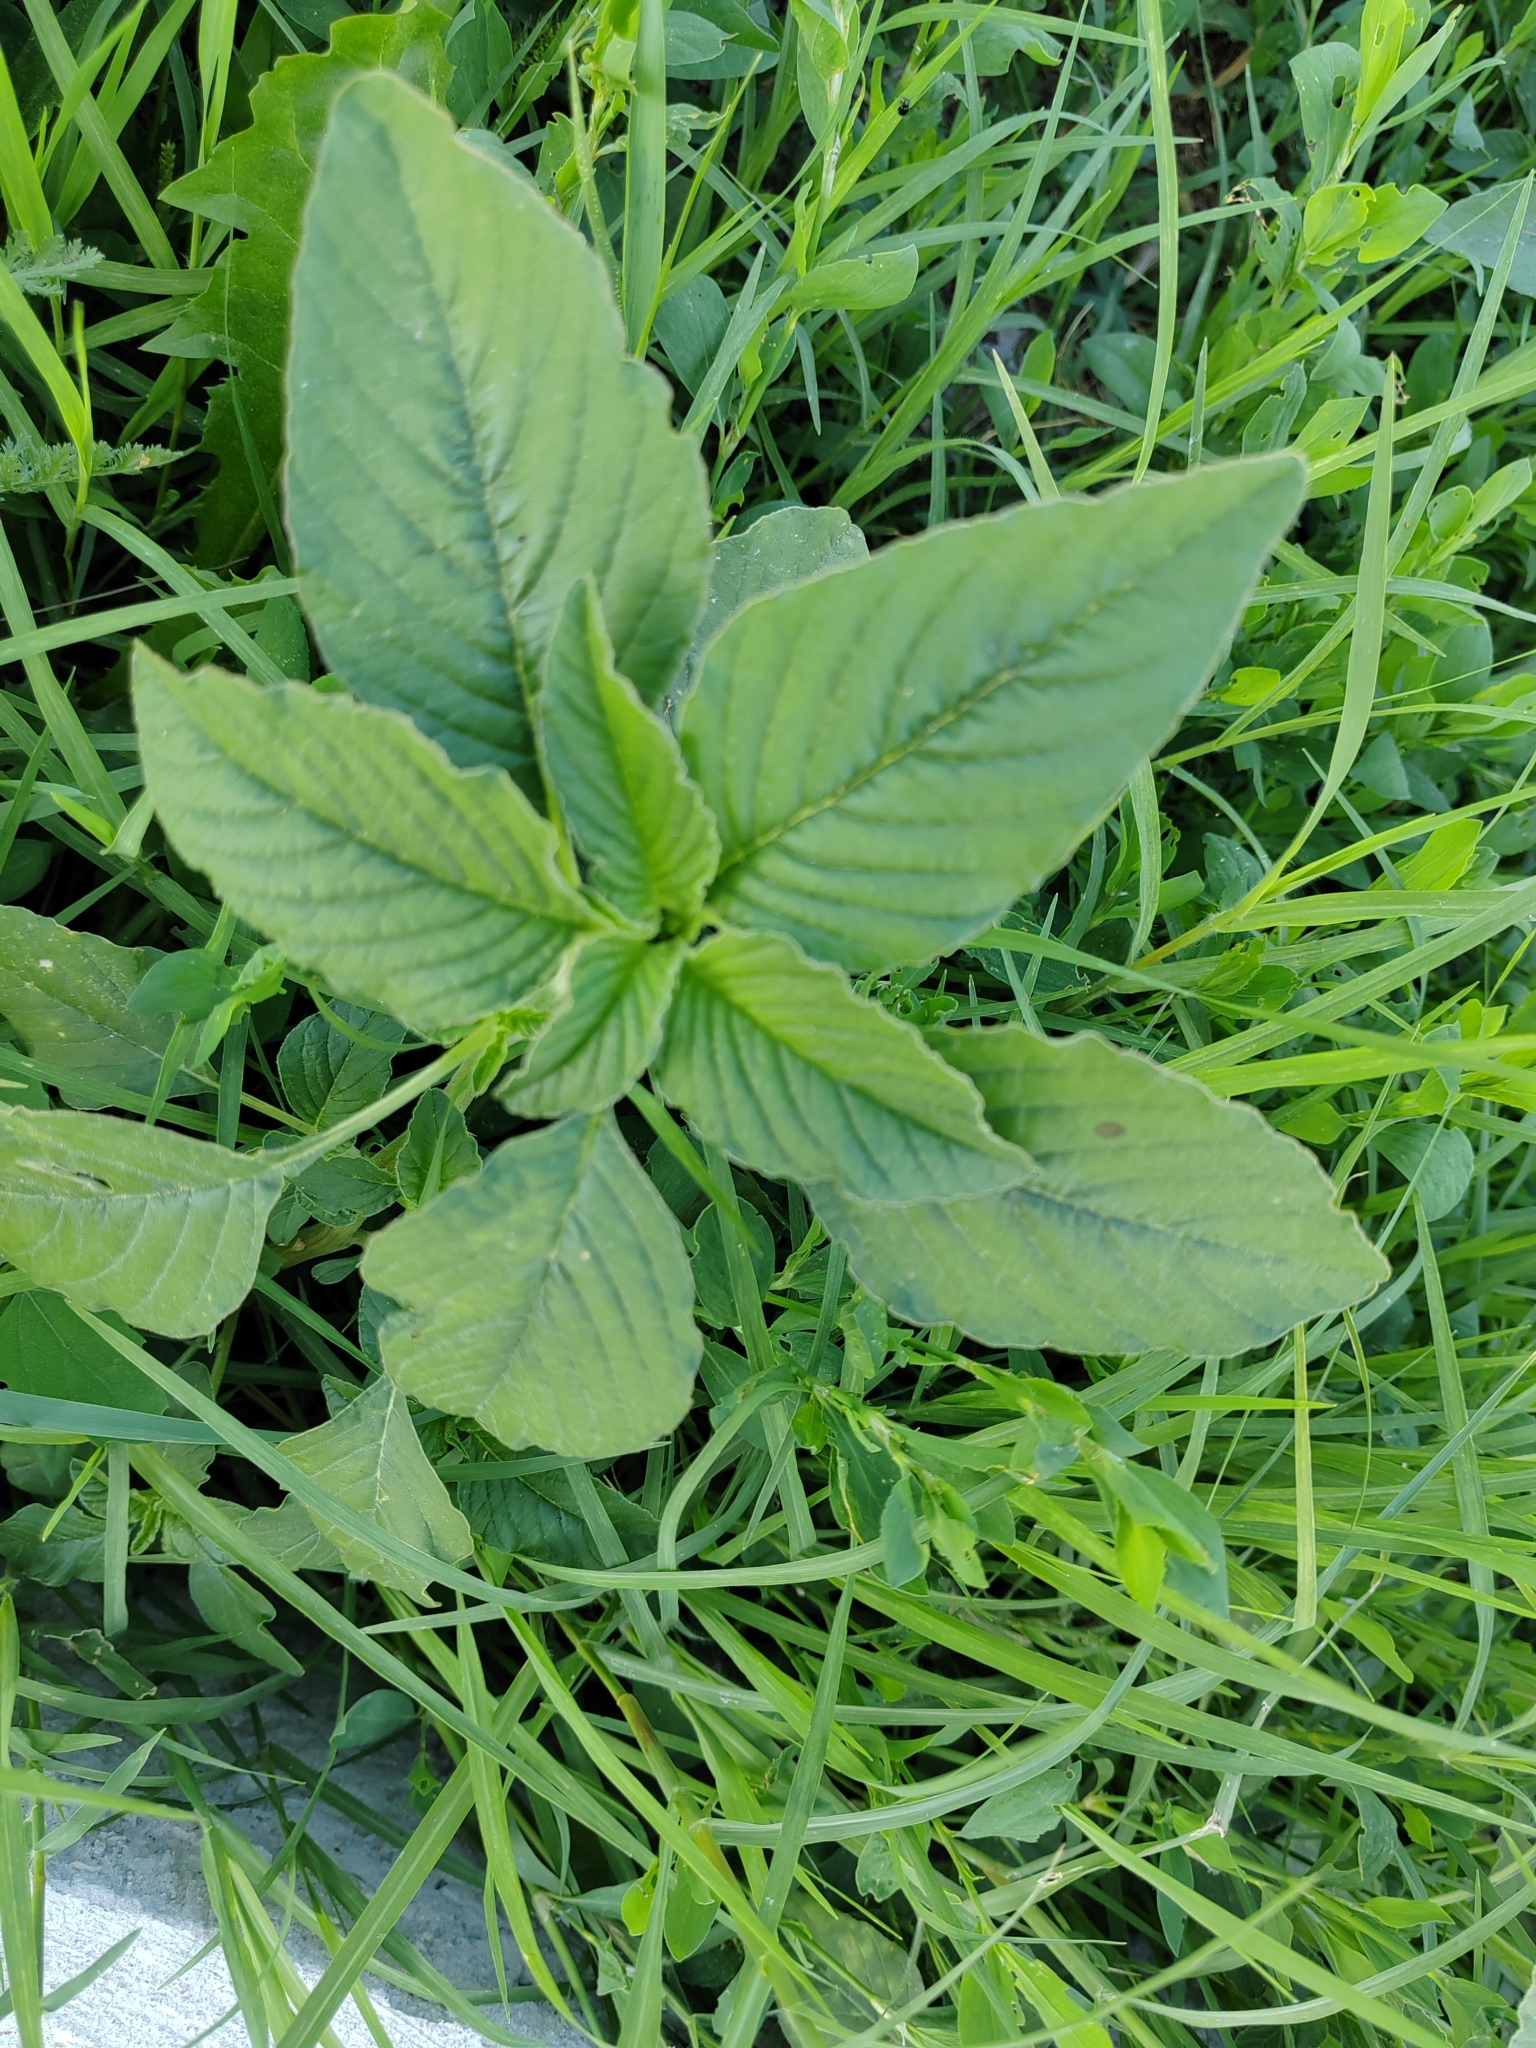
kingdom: Plantae
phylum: Tracheophyta
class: Magnoliopsida
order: Caryophyllales
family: Amaranthaceae
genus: Amaranthus
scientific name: Amaranthus retroflexus
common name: Redroot amaranth
